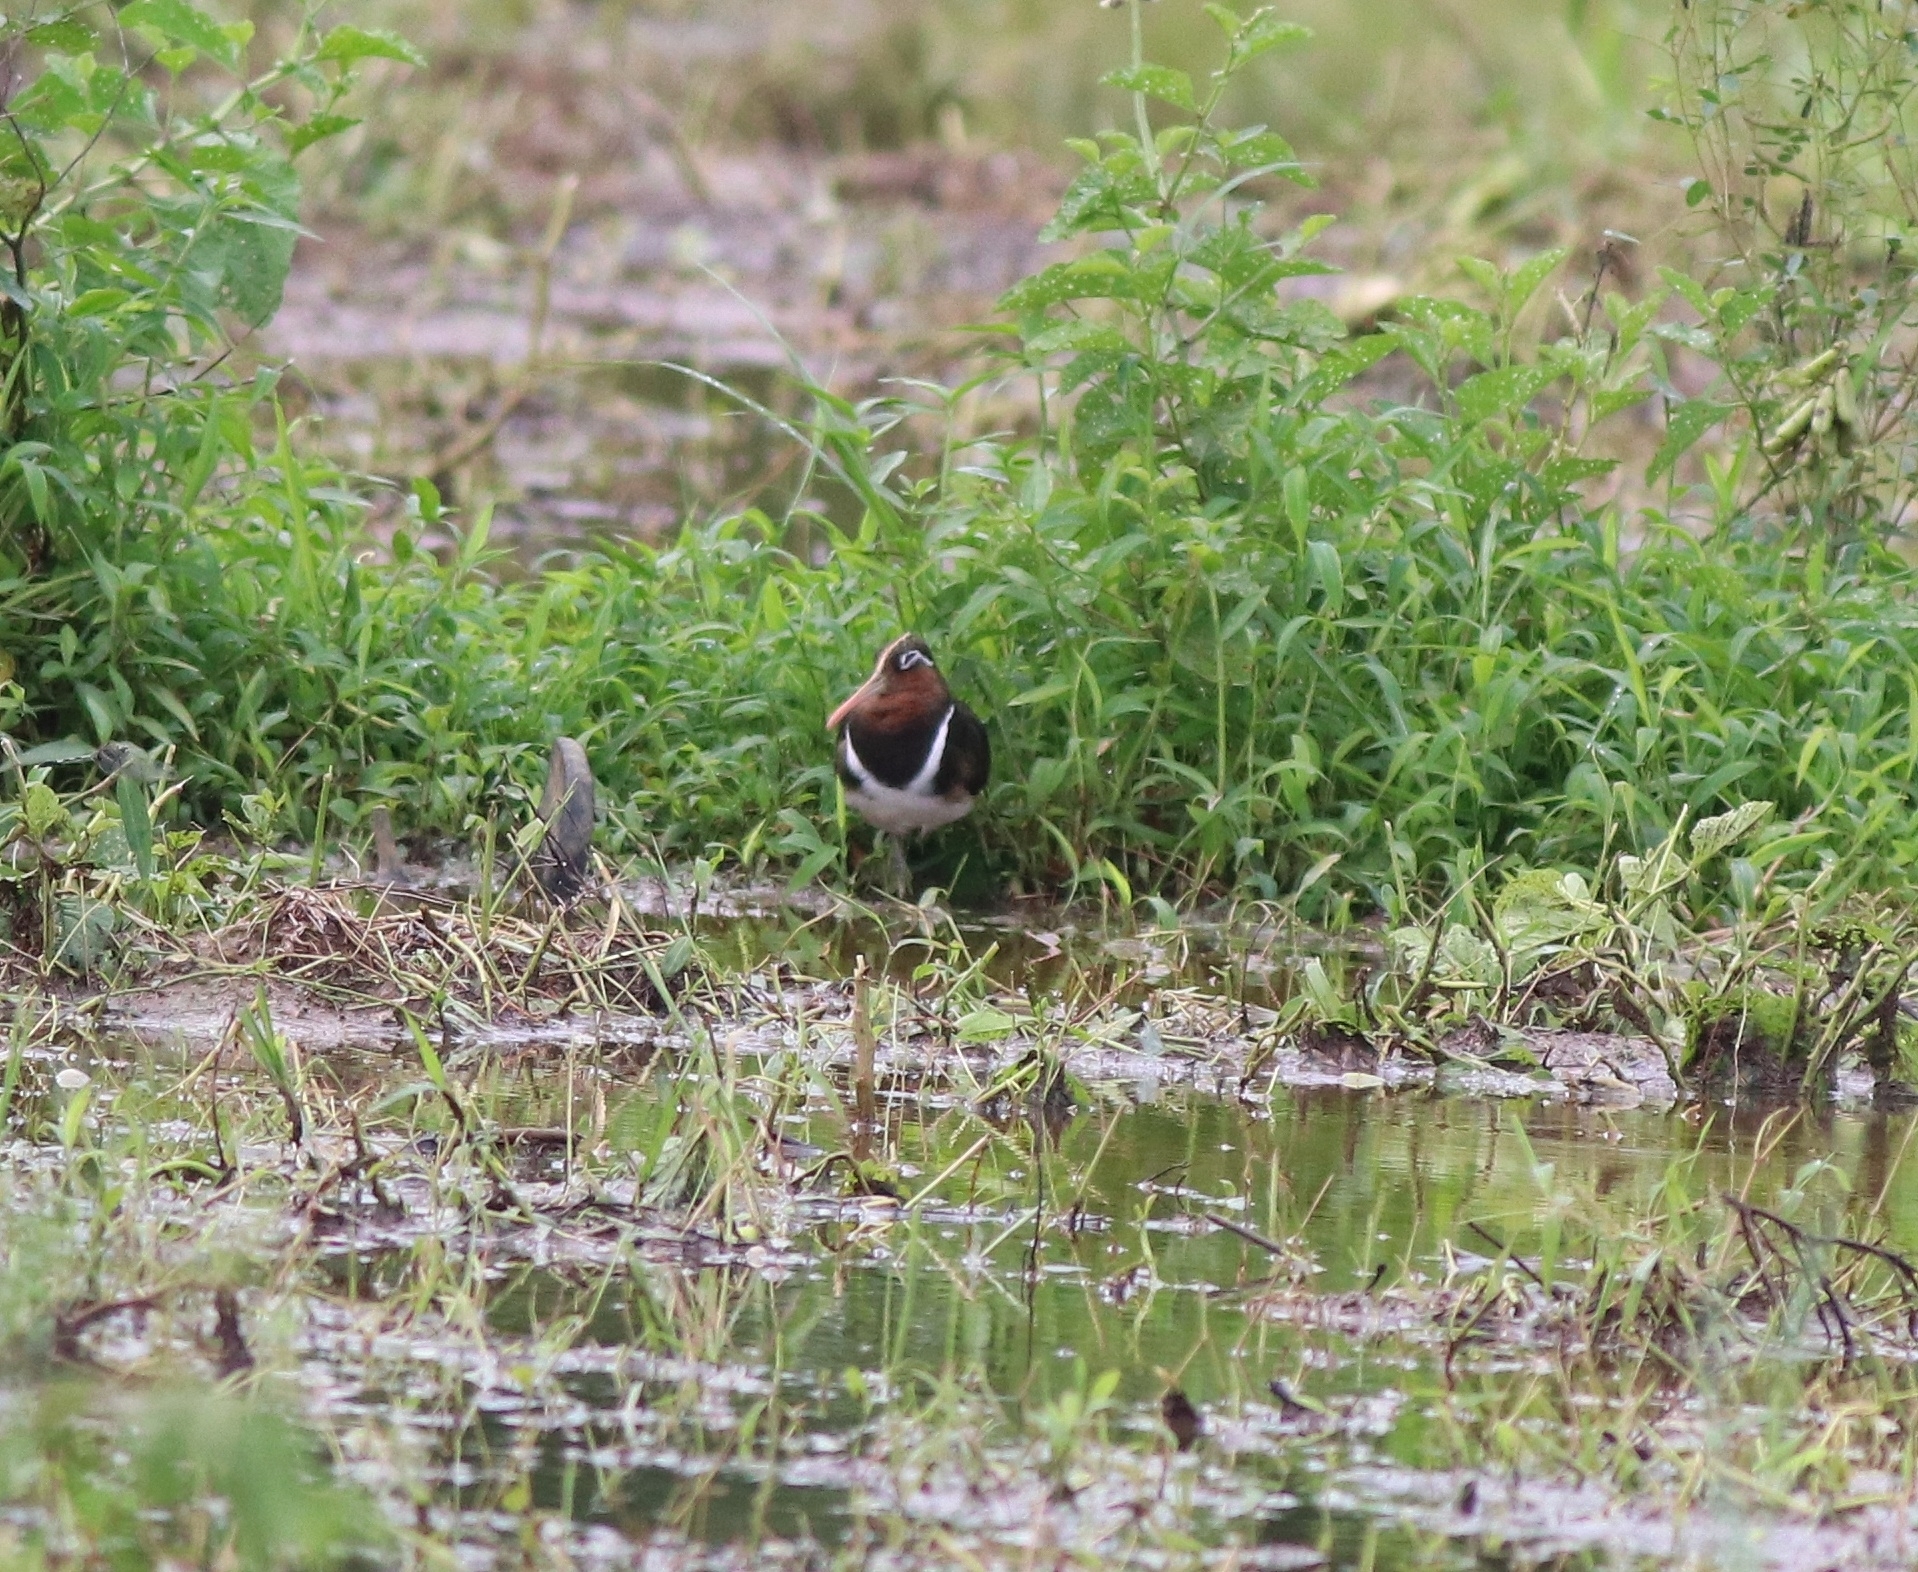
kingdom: Animalia
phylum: Chordata
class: Aves
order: Charadriiformes
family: Rostratulidae
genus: Rostratula
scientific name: Rostratula benghalensis
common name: Greater painted-snipe
